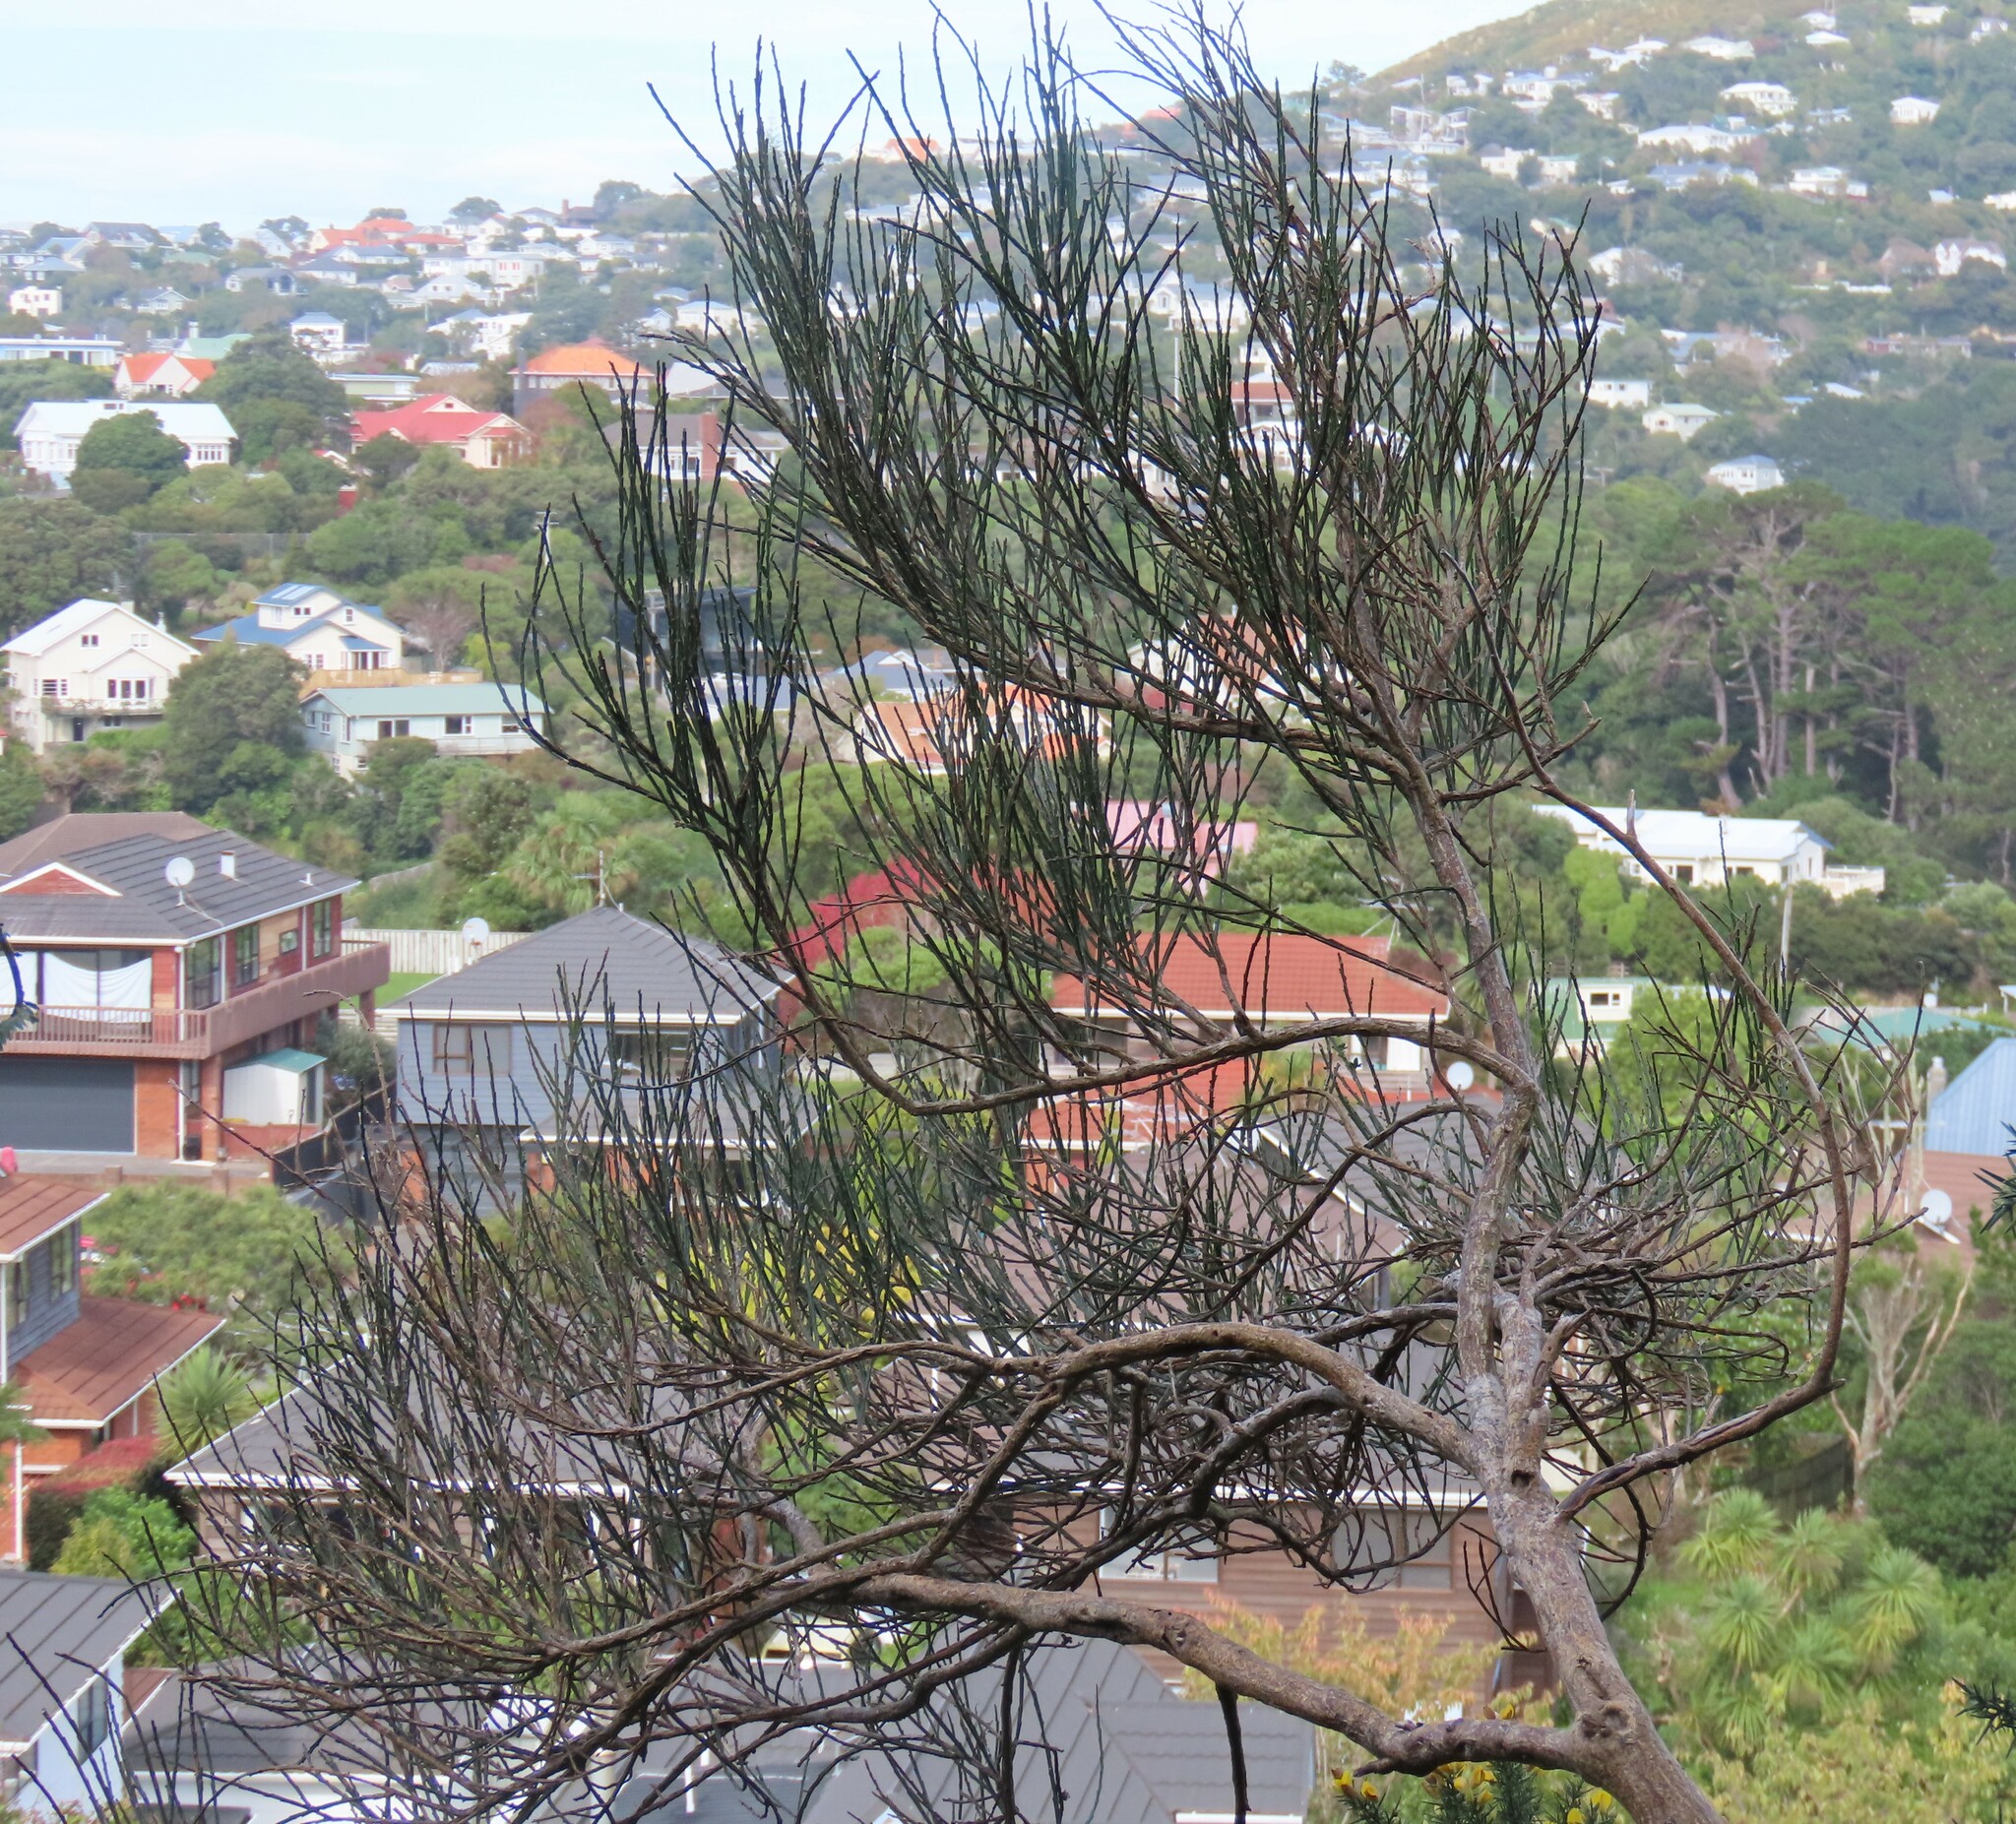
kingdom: Plantae
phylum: Tracheophyta
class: Magnoliopsida
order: Fabales
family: Fabaceae
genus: Cytisus
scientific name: Cytisus scoparius
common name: Scotch broom
